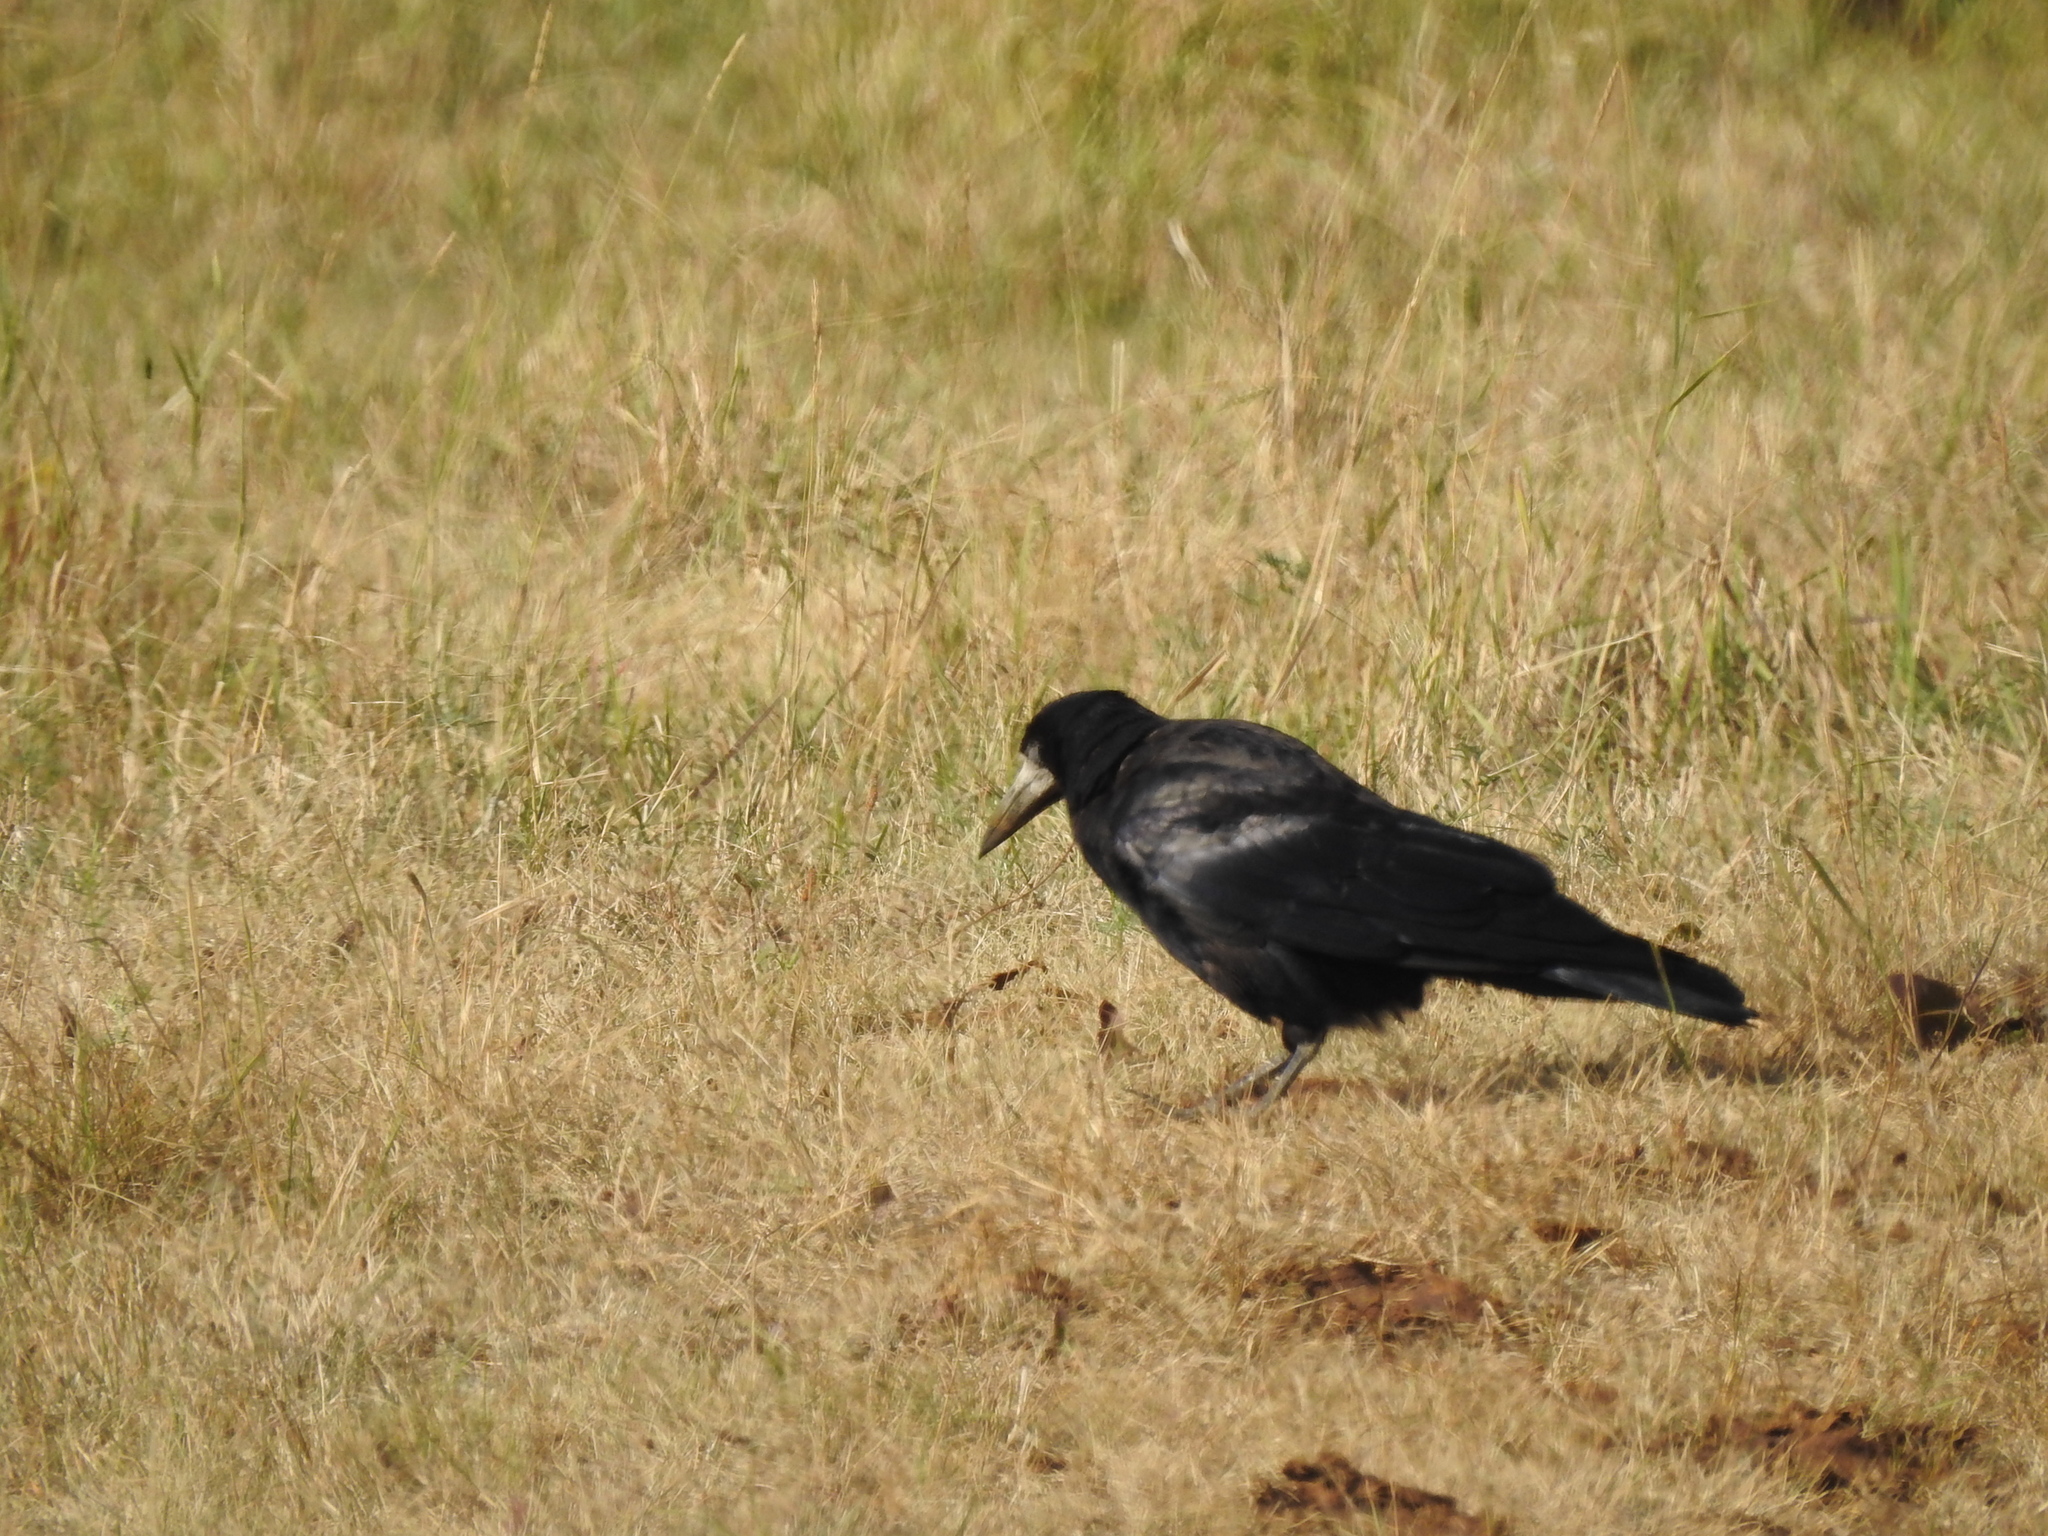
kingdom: Animalia
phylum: Chordata
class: Aves
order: Passeriformes
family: Corvidae
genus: Corvus
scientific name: Corvus frugilegus
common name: Rook
